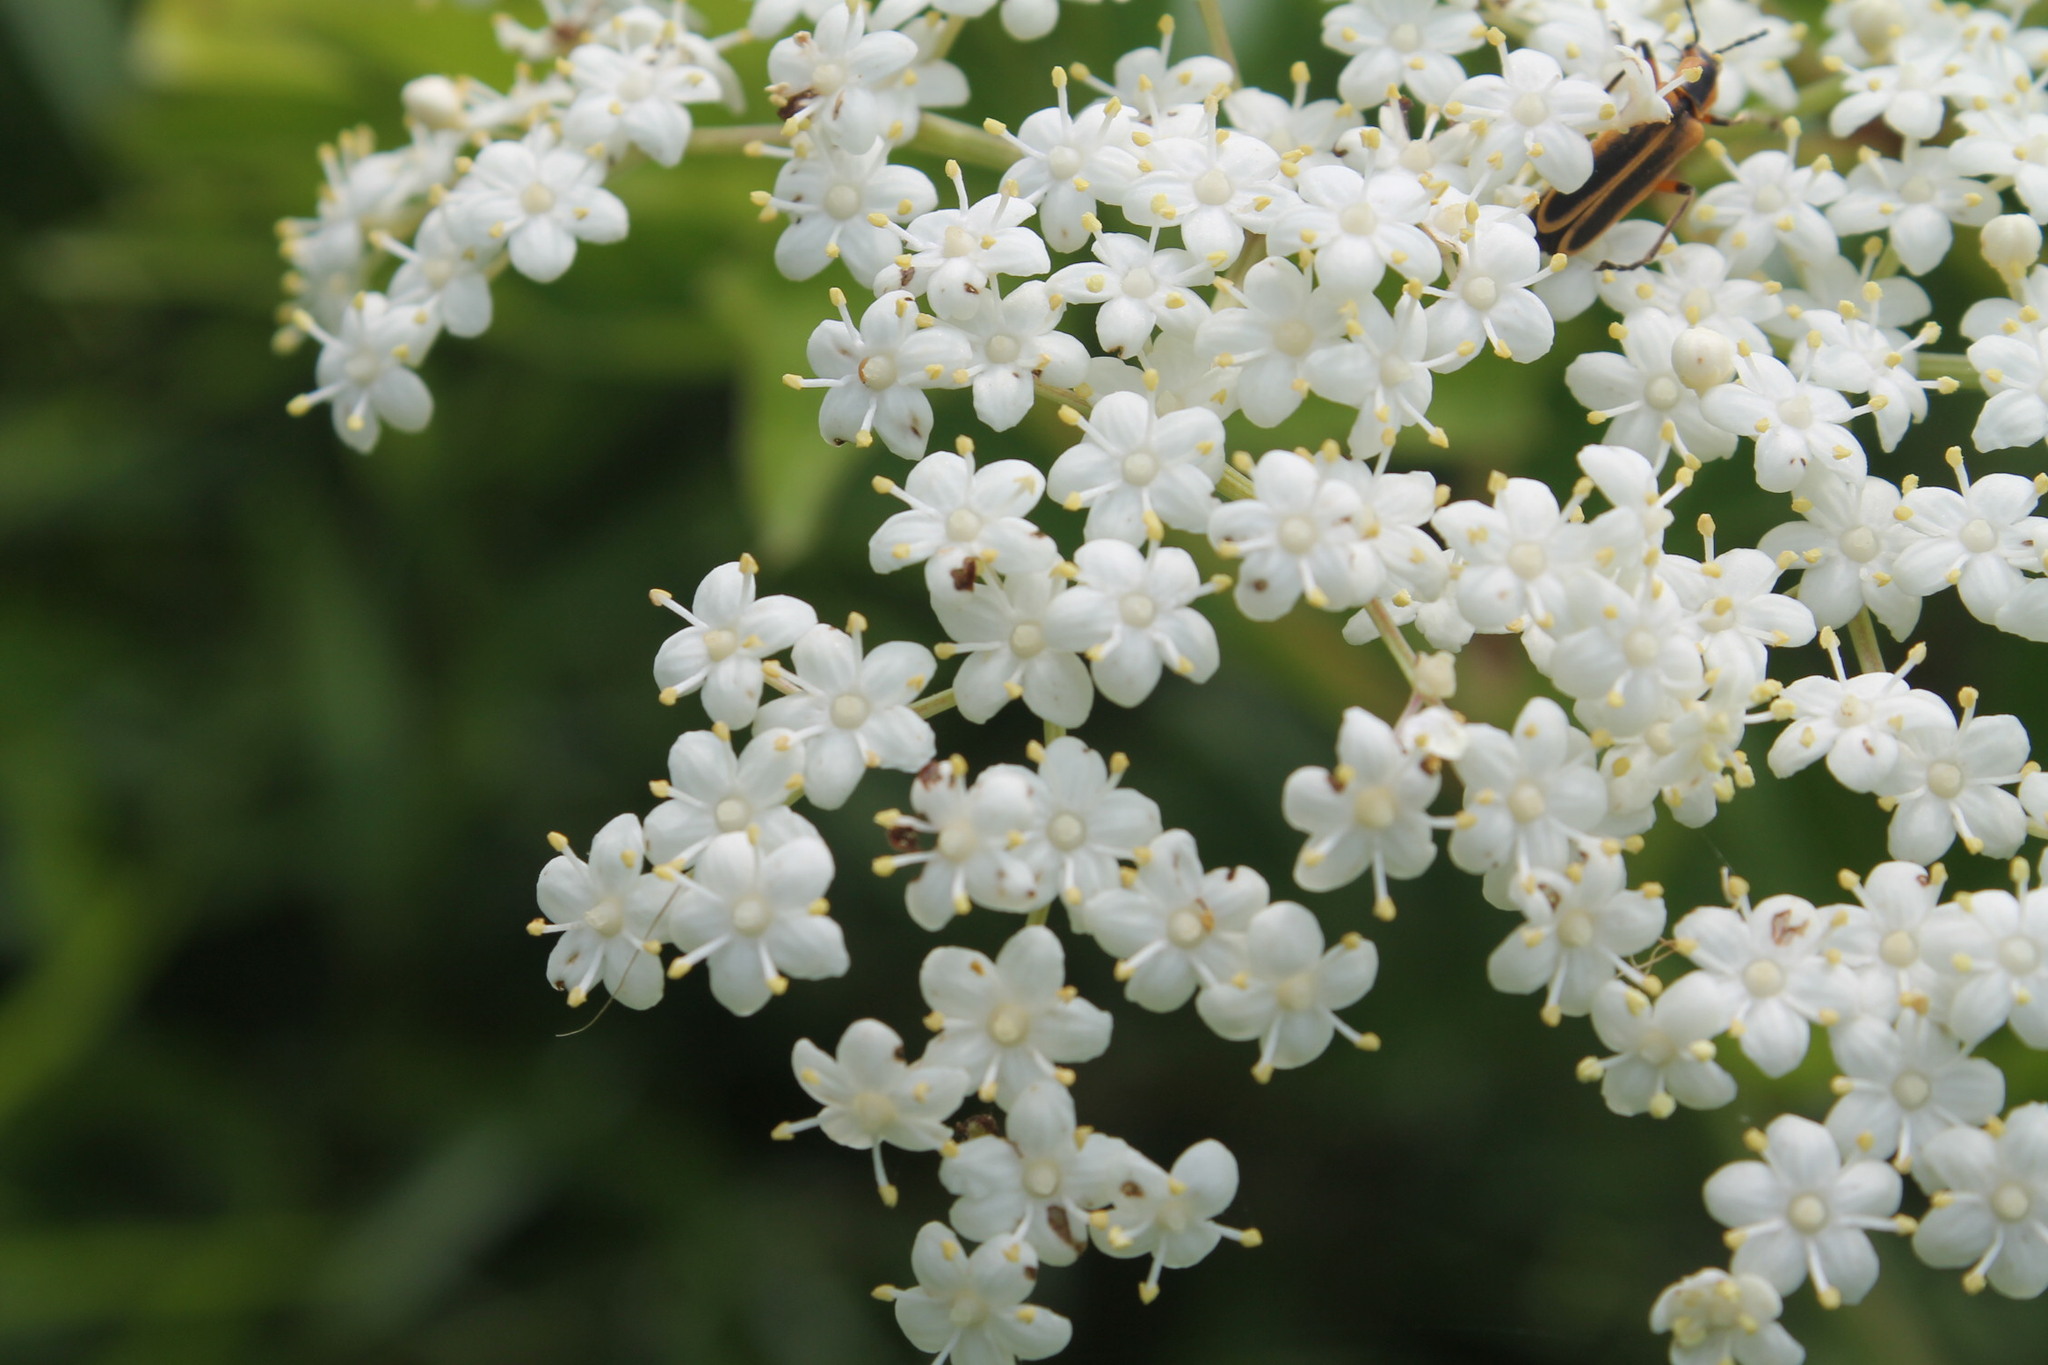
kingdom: Animalia
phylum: Arthropoda
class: Insecta
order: Coleoptera
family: Cantharidae
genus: Chauliognathus
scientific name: Chauliognathus marginatus
